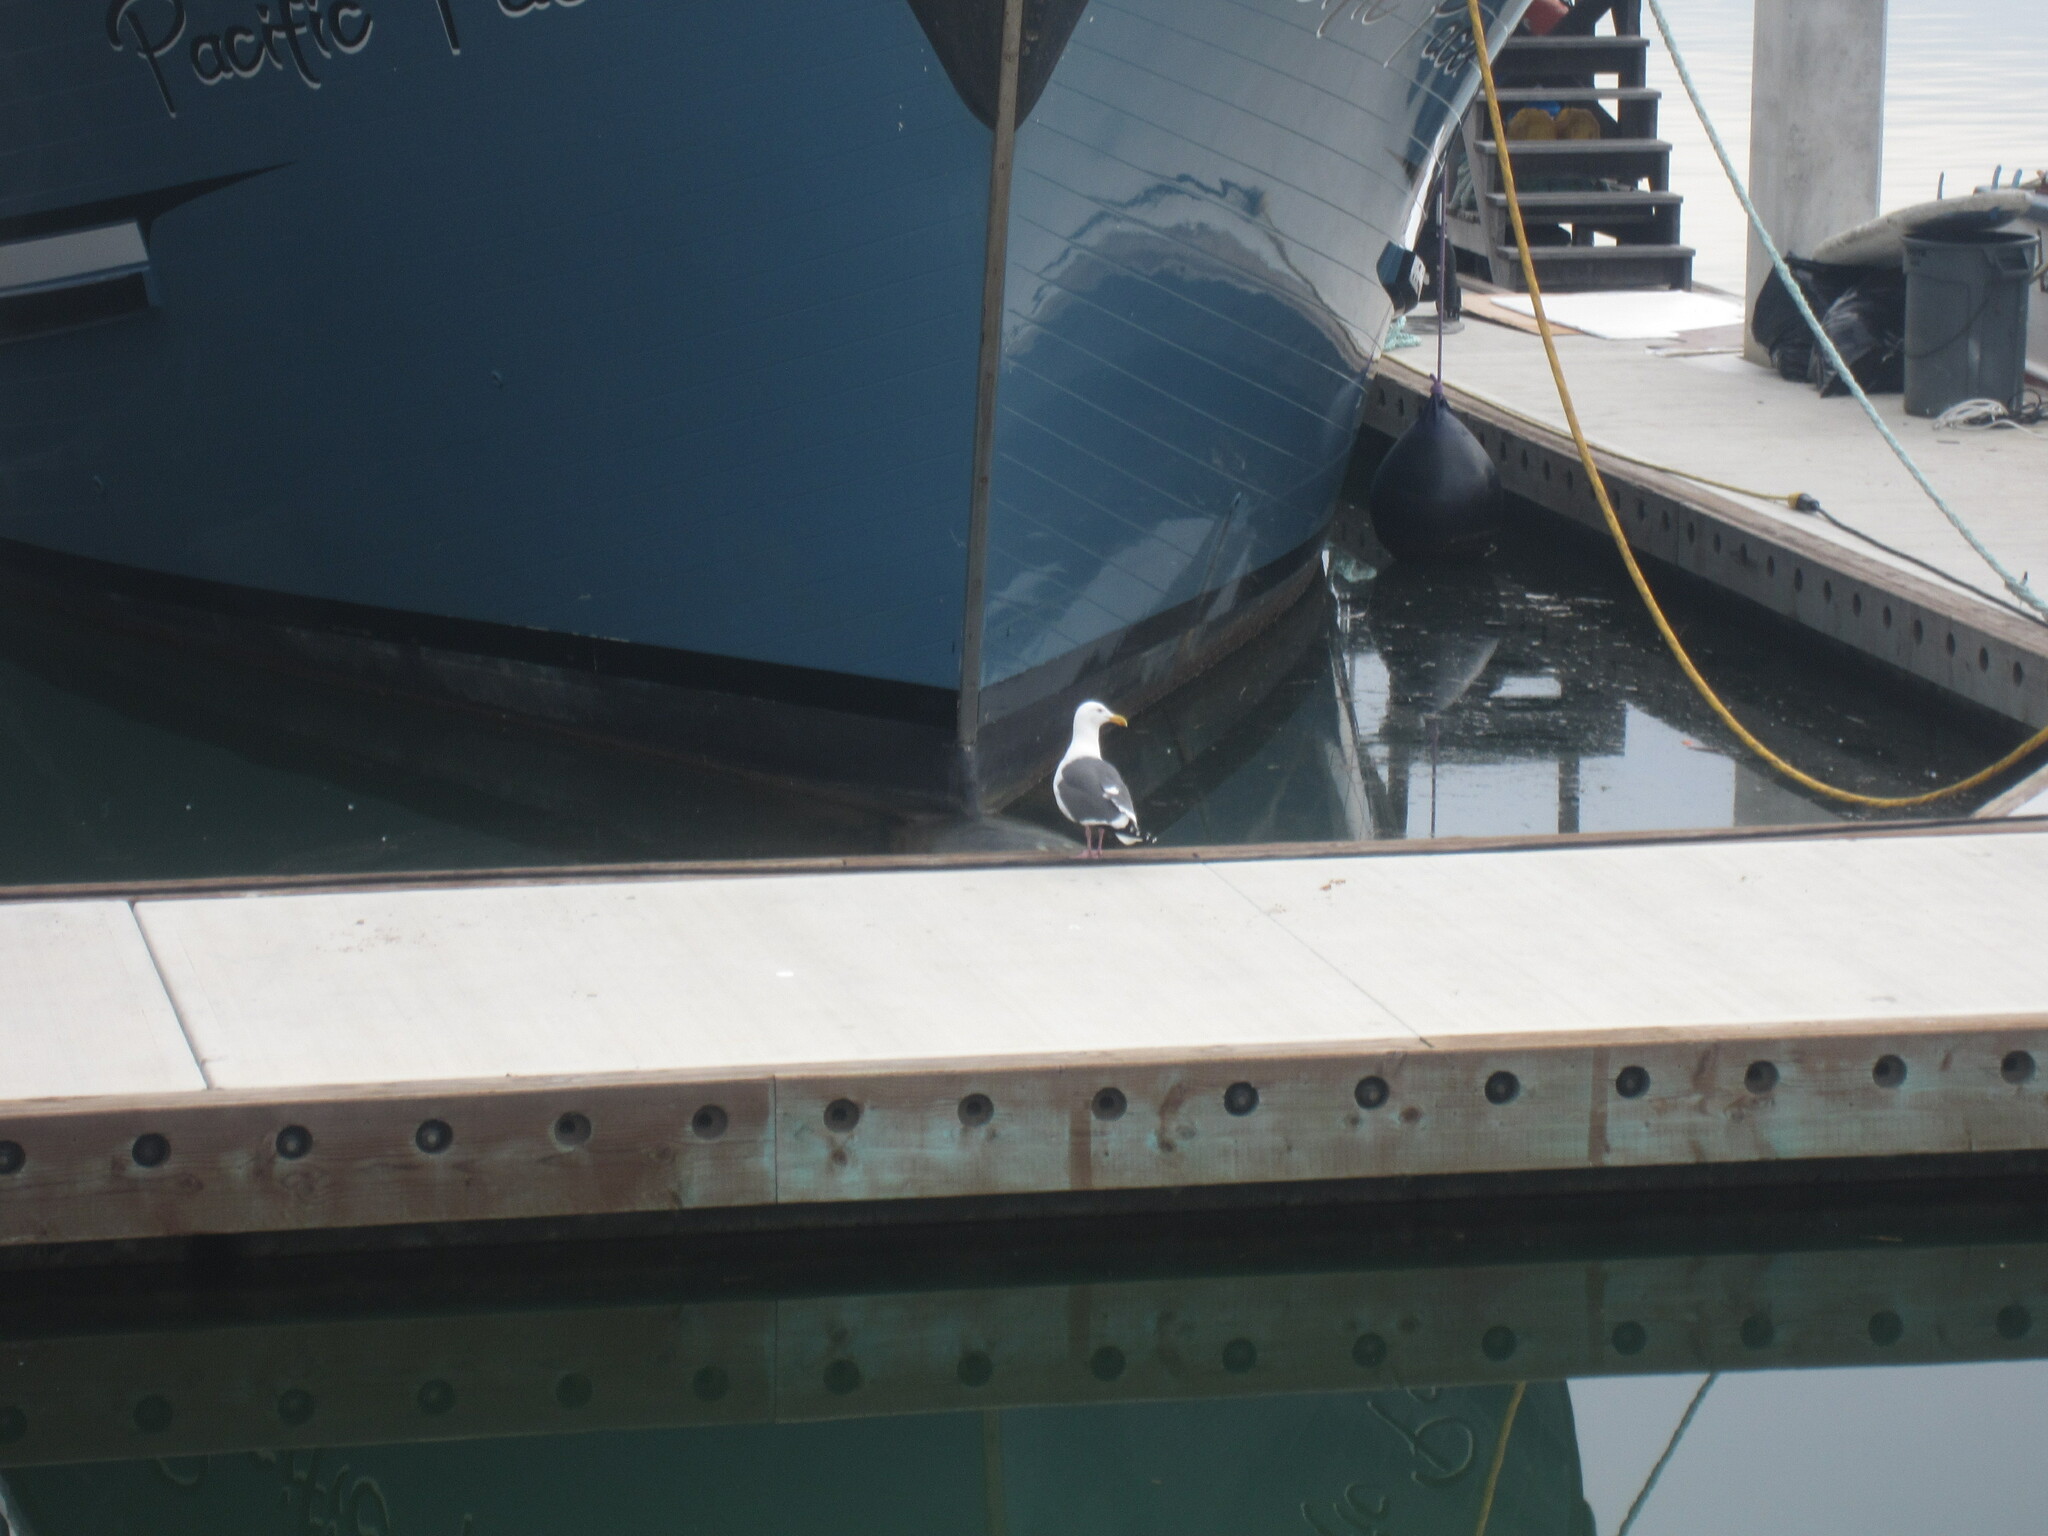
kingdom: Animalia
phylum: Chordata
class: Aves
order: Charadriiformes
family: Laridae
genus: Larus
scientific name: Larus occidentalis
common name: Western gull
